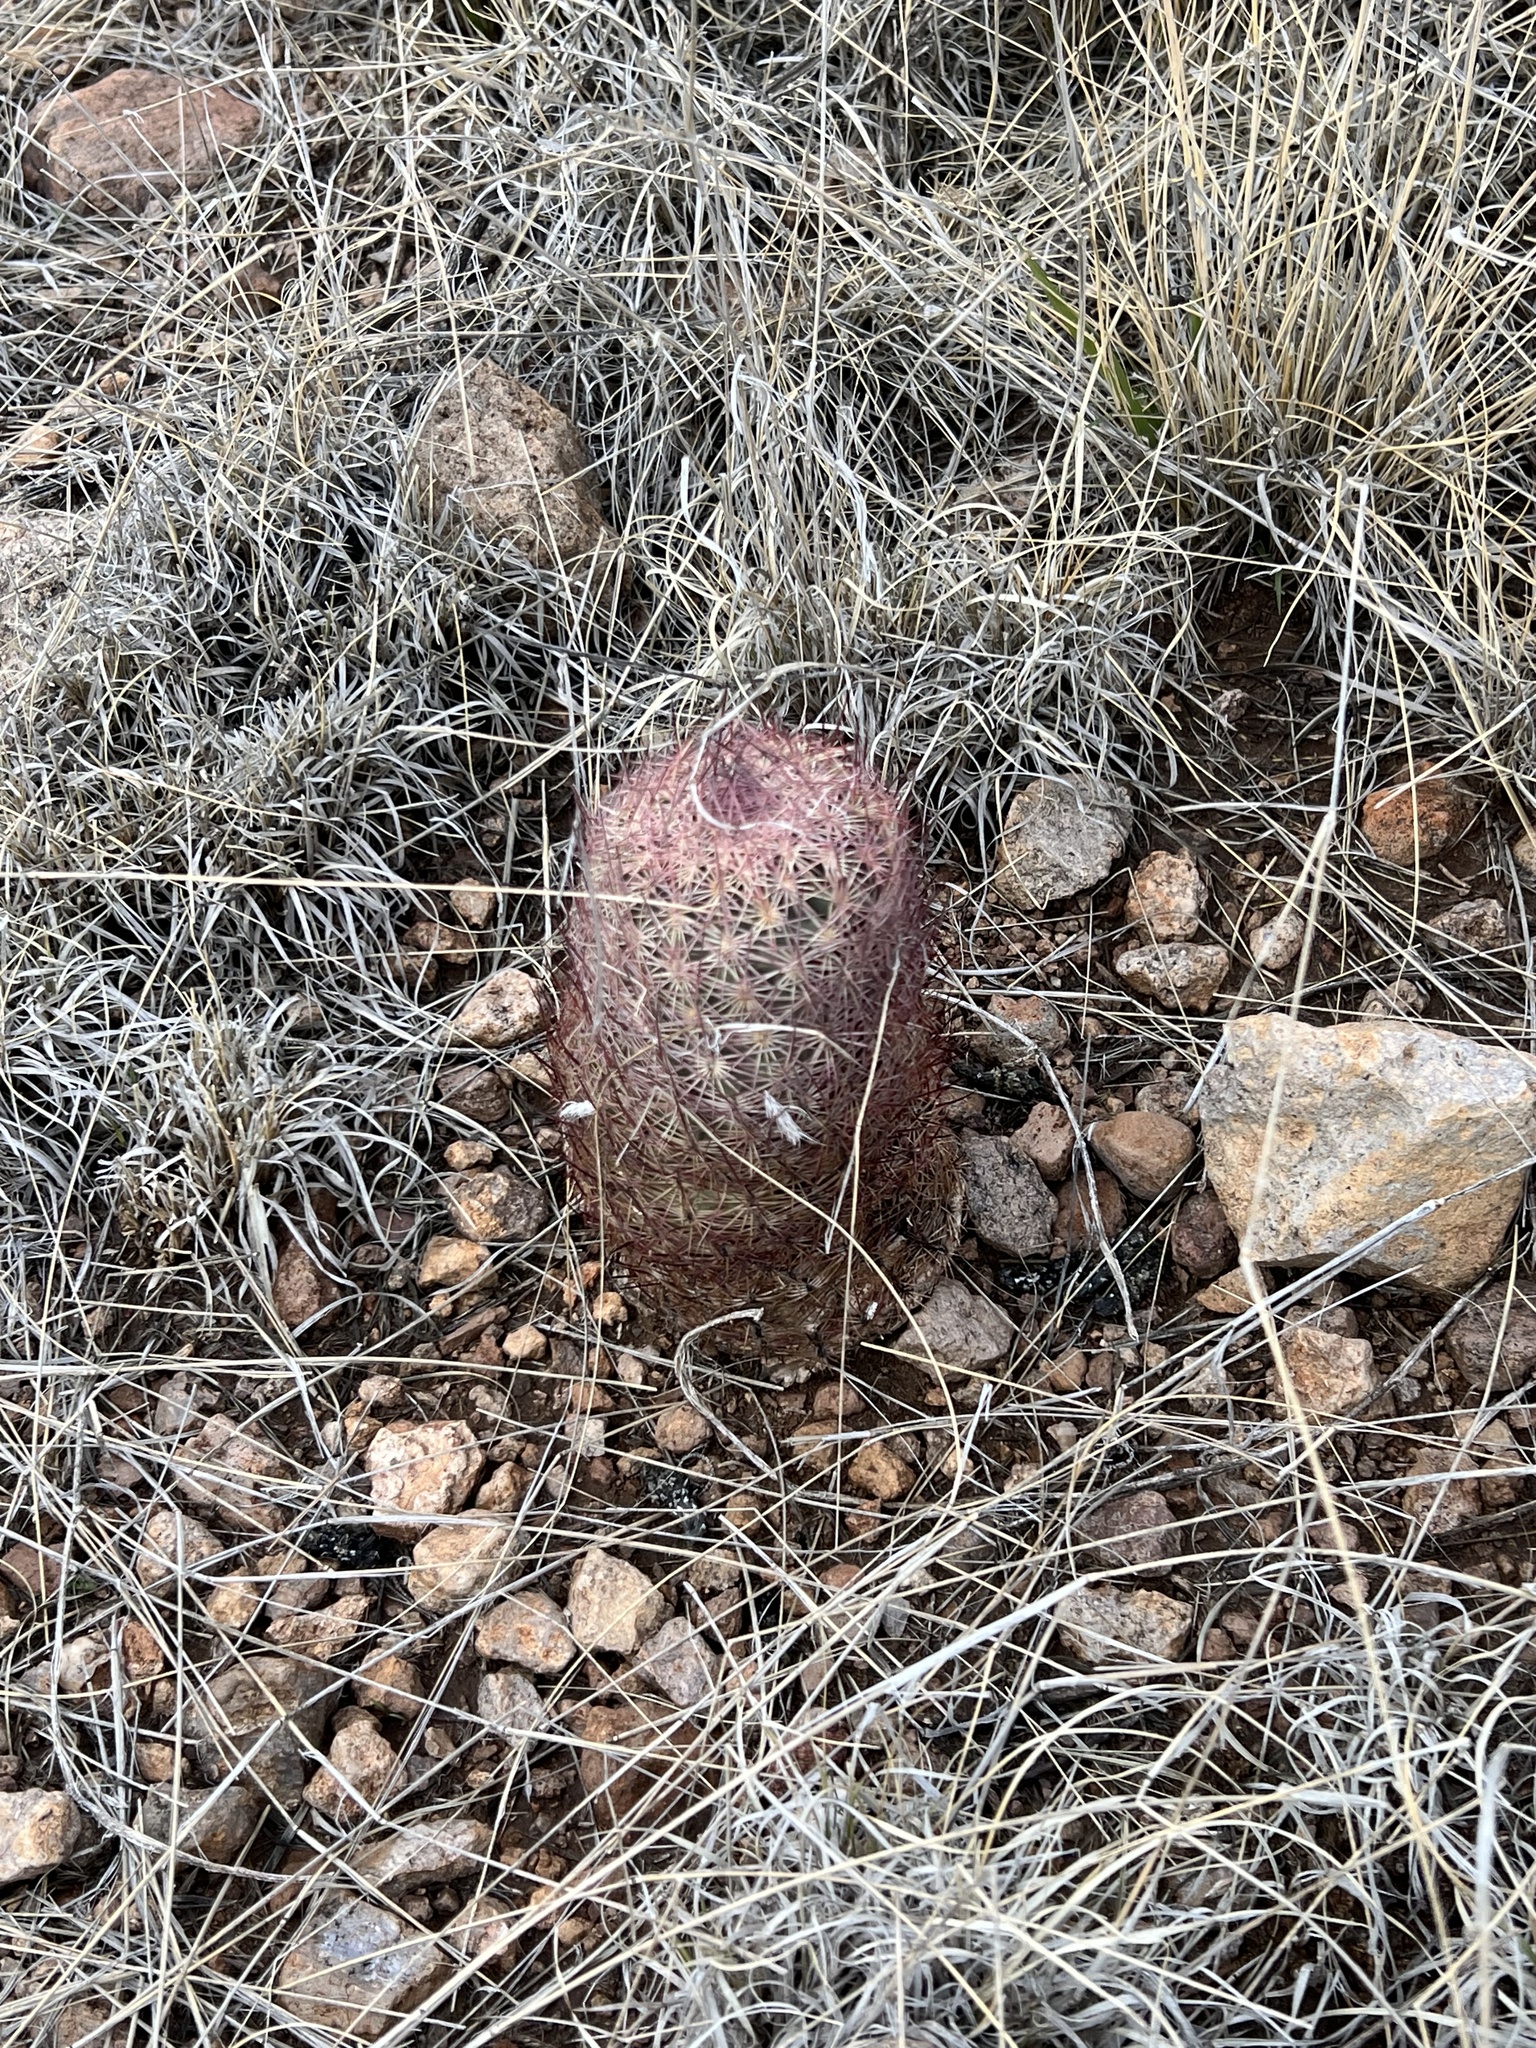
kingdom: Plantae
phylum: Tracheophyta
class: Magnoliopsida
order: Caryophyllales
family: Cactaceae
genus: Sclerocactus
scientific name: Sclerocactus johnsonii
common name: Eight-spine fishhook cactus
